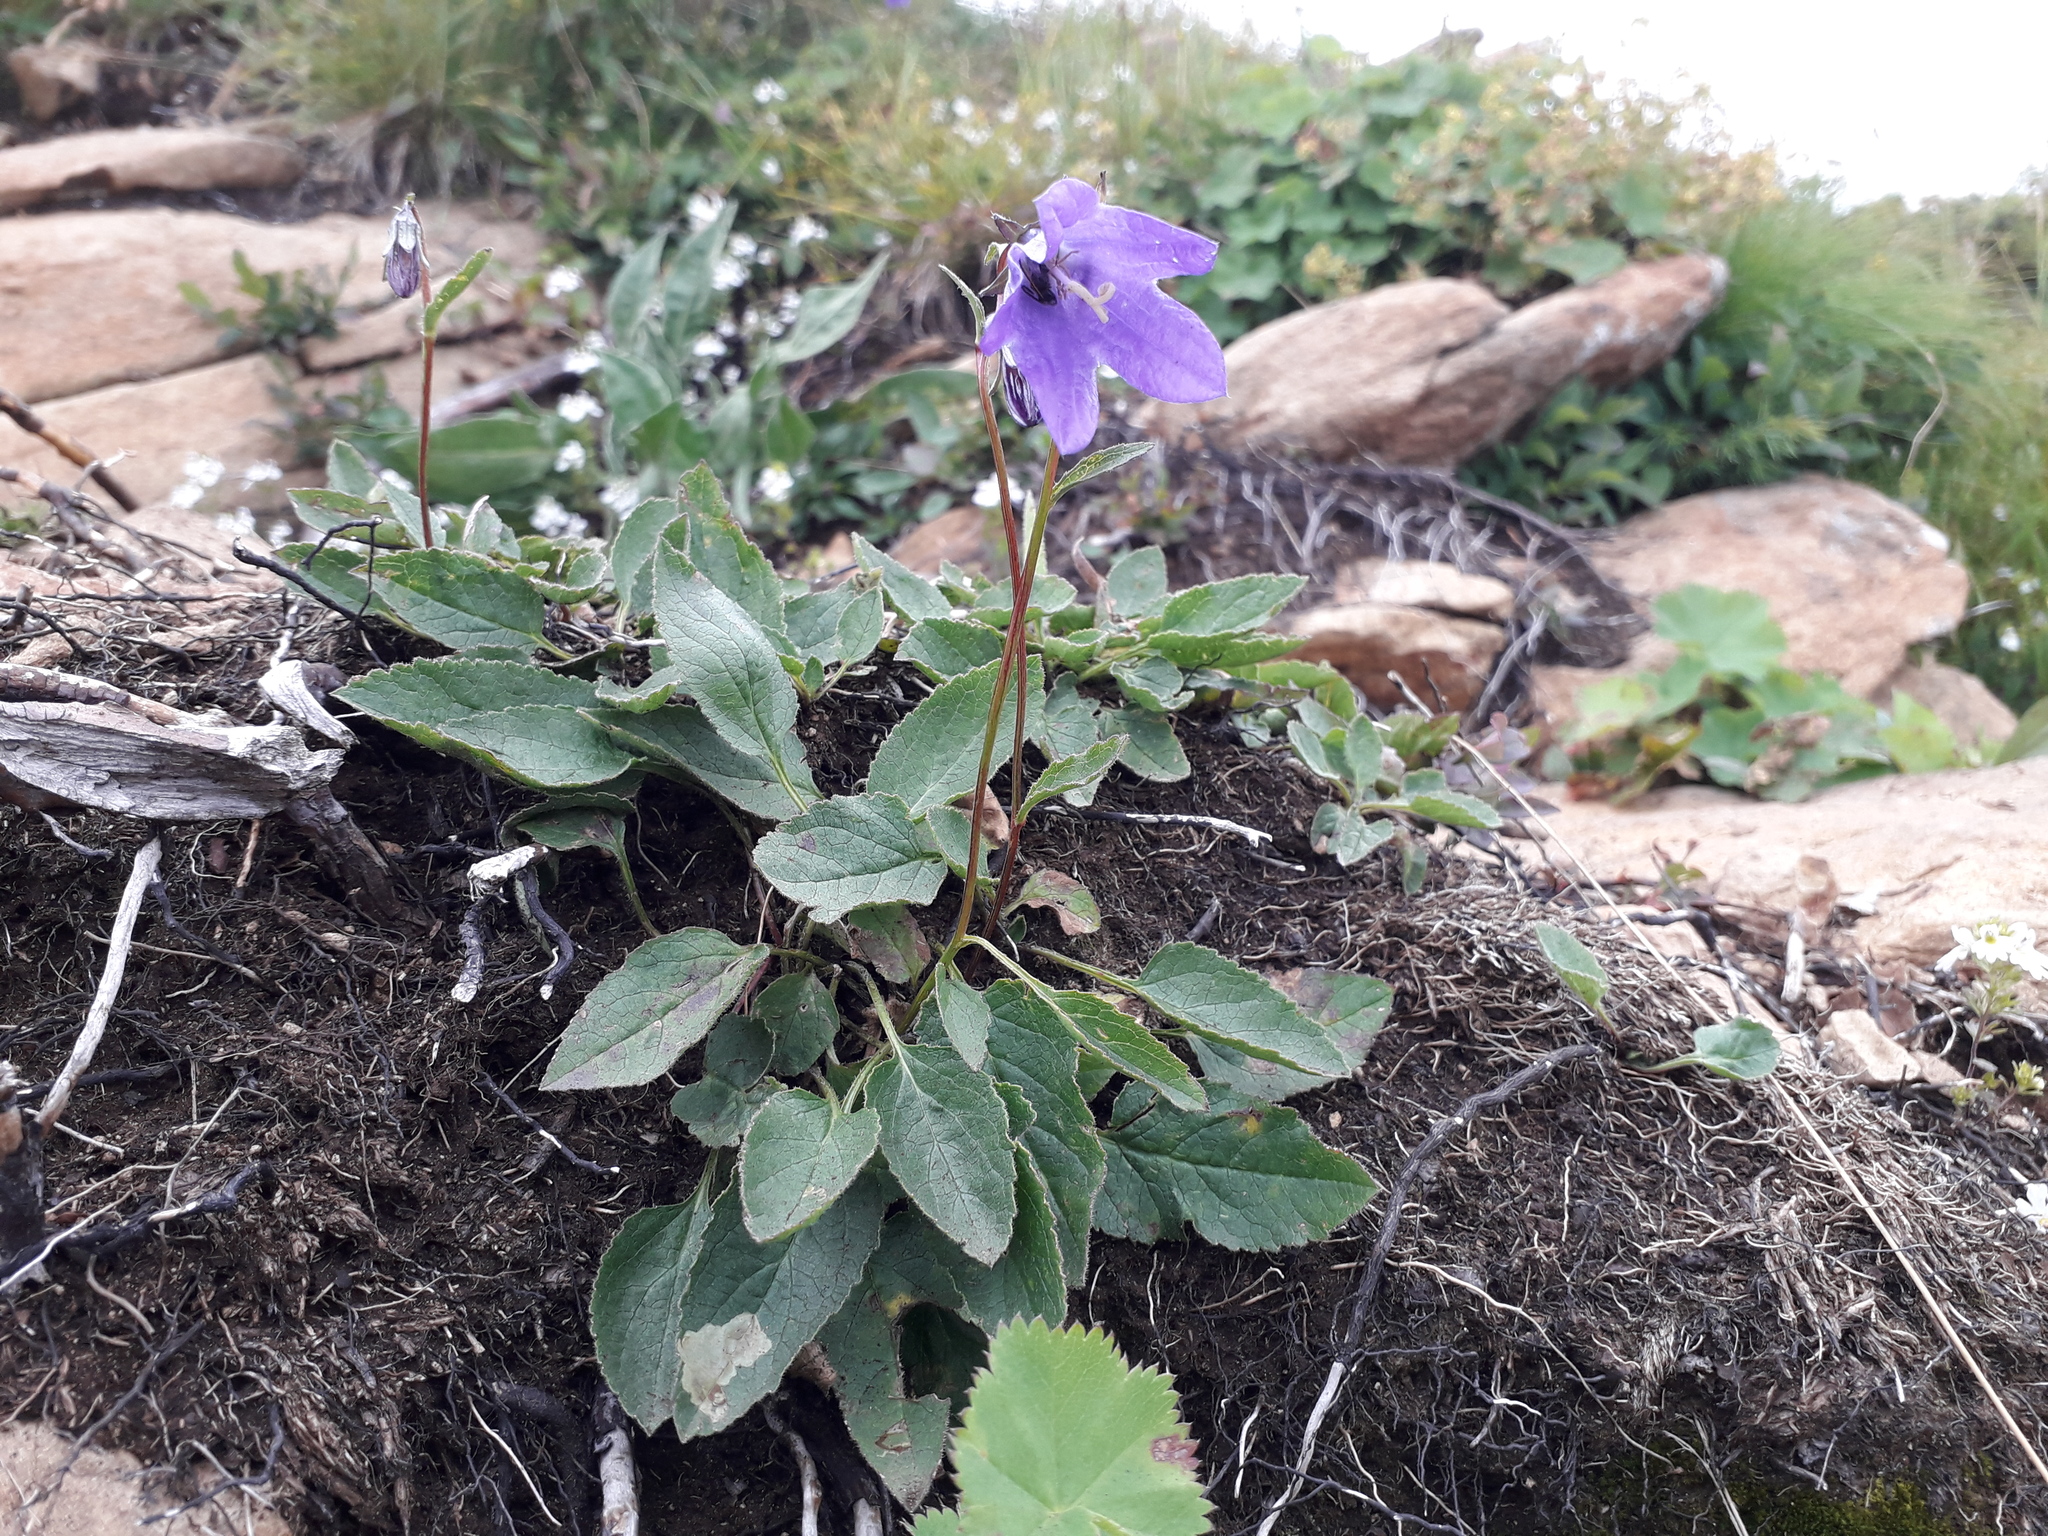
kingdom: Plantae
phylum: Tracheophyta
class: Magnoliopsida
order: Asterales
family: Campanulaceae
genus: Campanula
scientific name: Campanula collina
